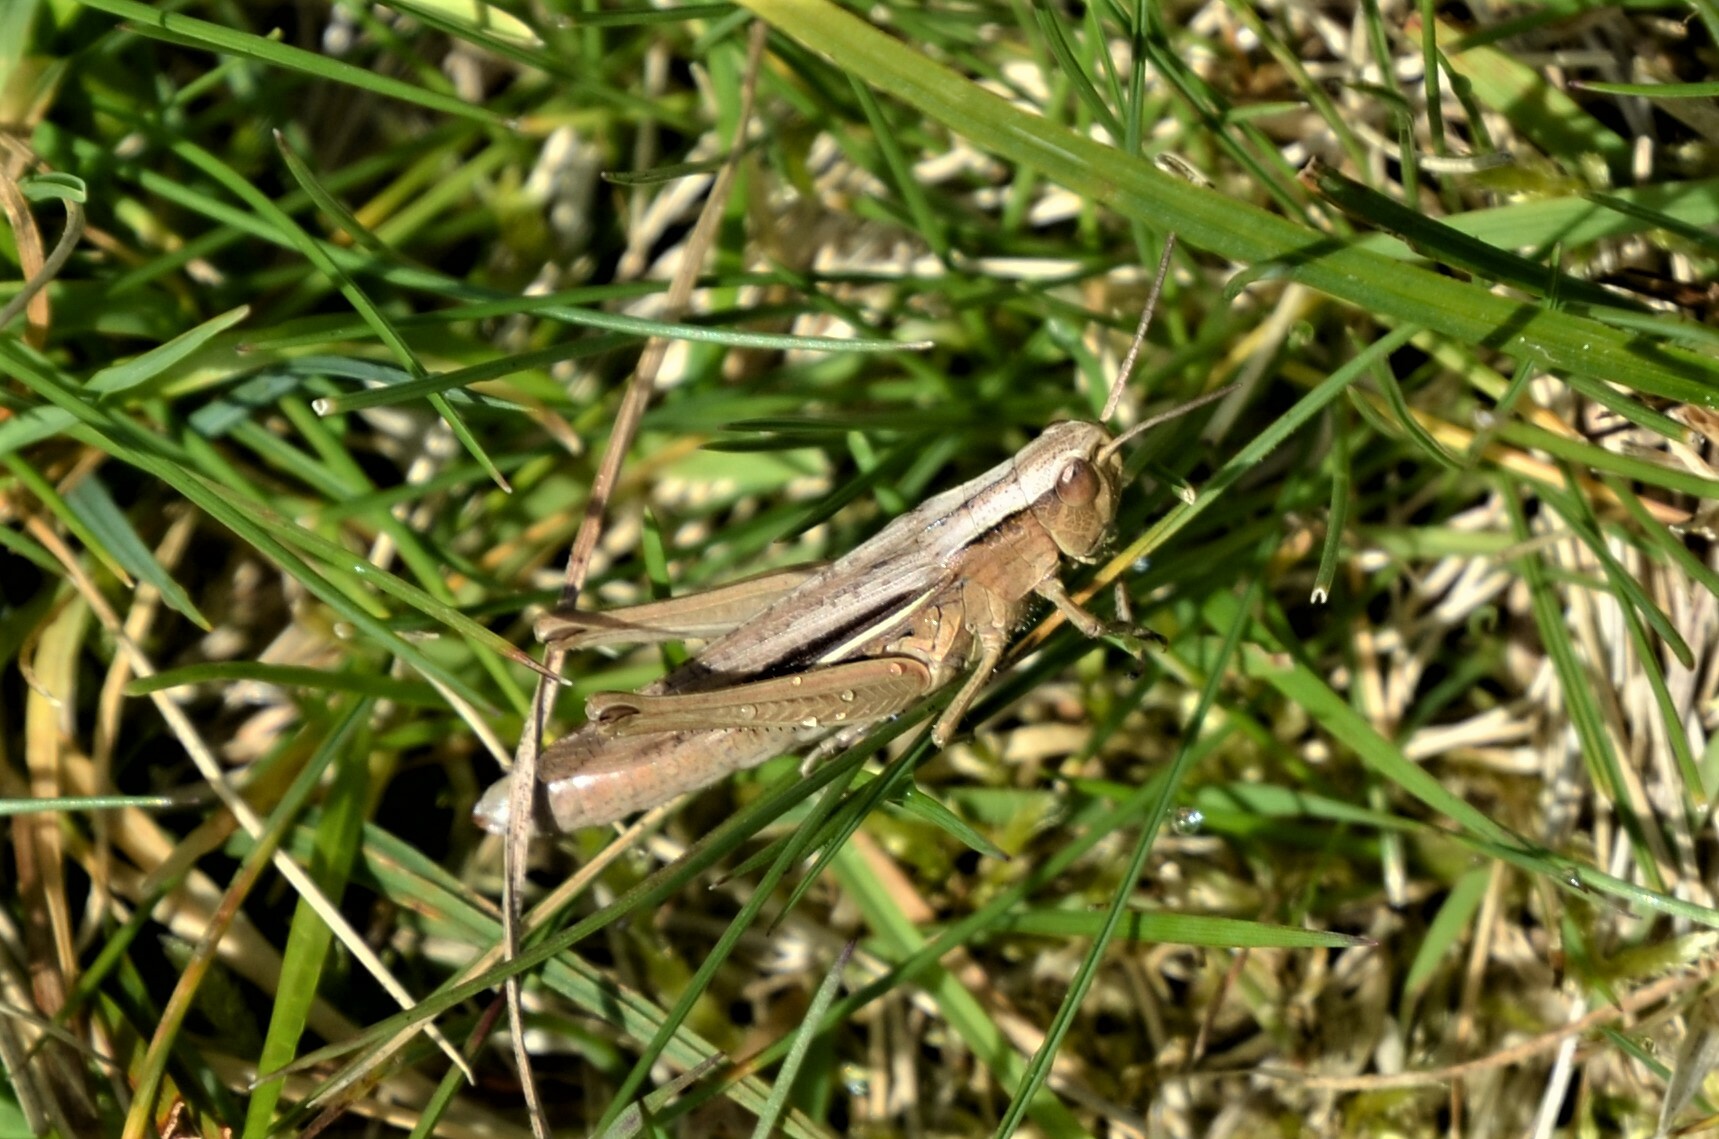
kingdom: Animalia
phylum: Arthropoda
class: Insecta
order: Orthoptera
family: Acrididae
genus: Chorthippus
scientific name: Chorthippus albomarginatus
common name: Lesser marsh grasshopper
